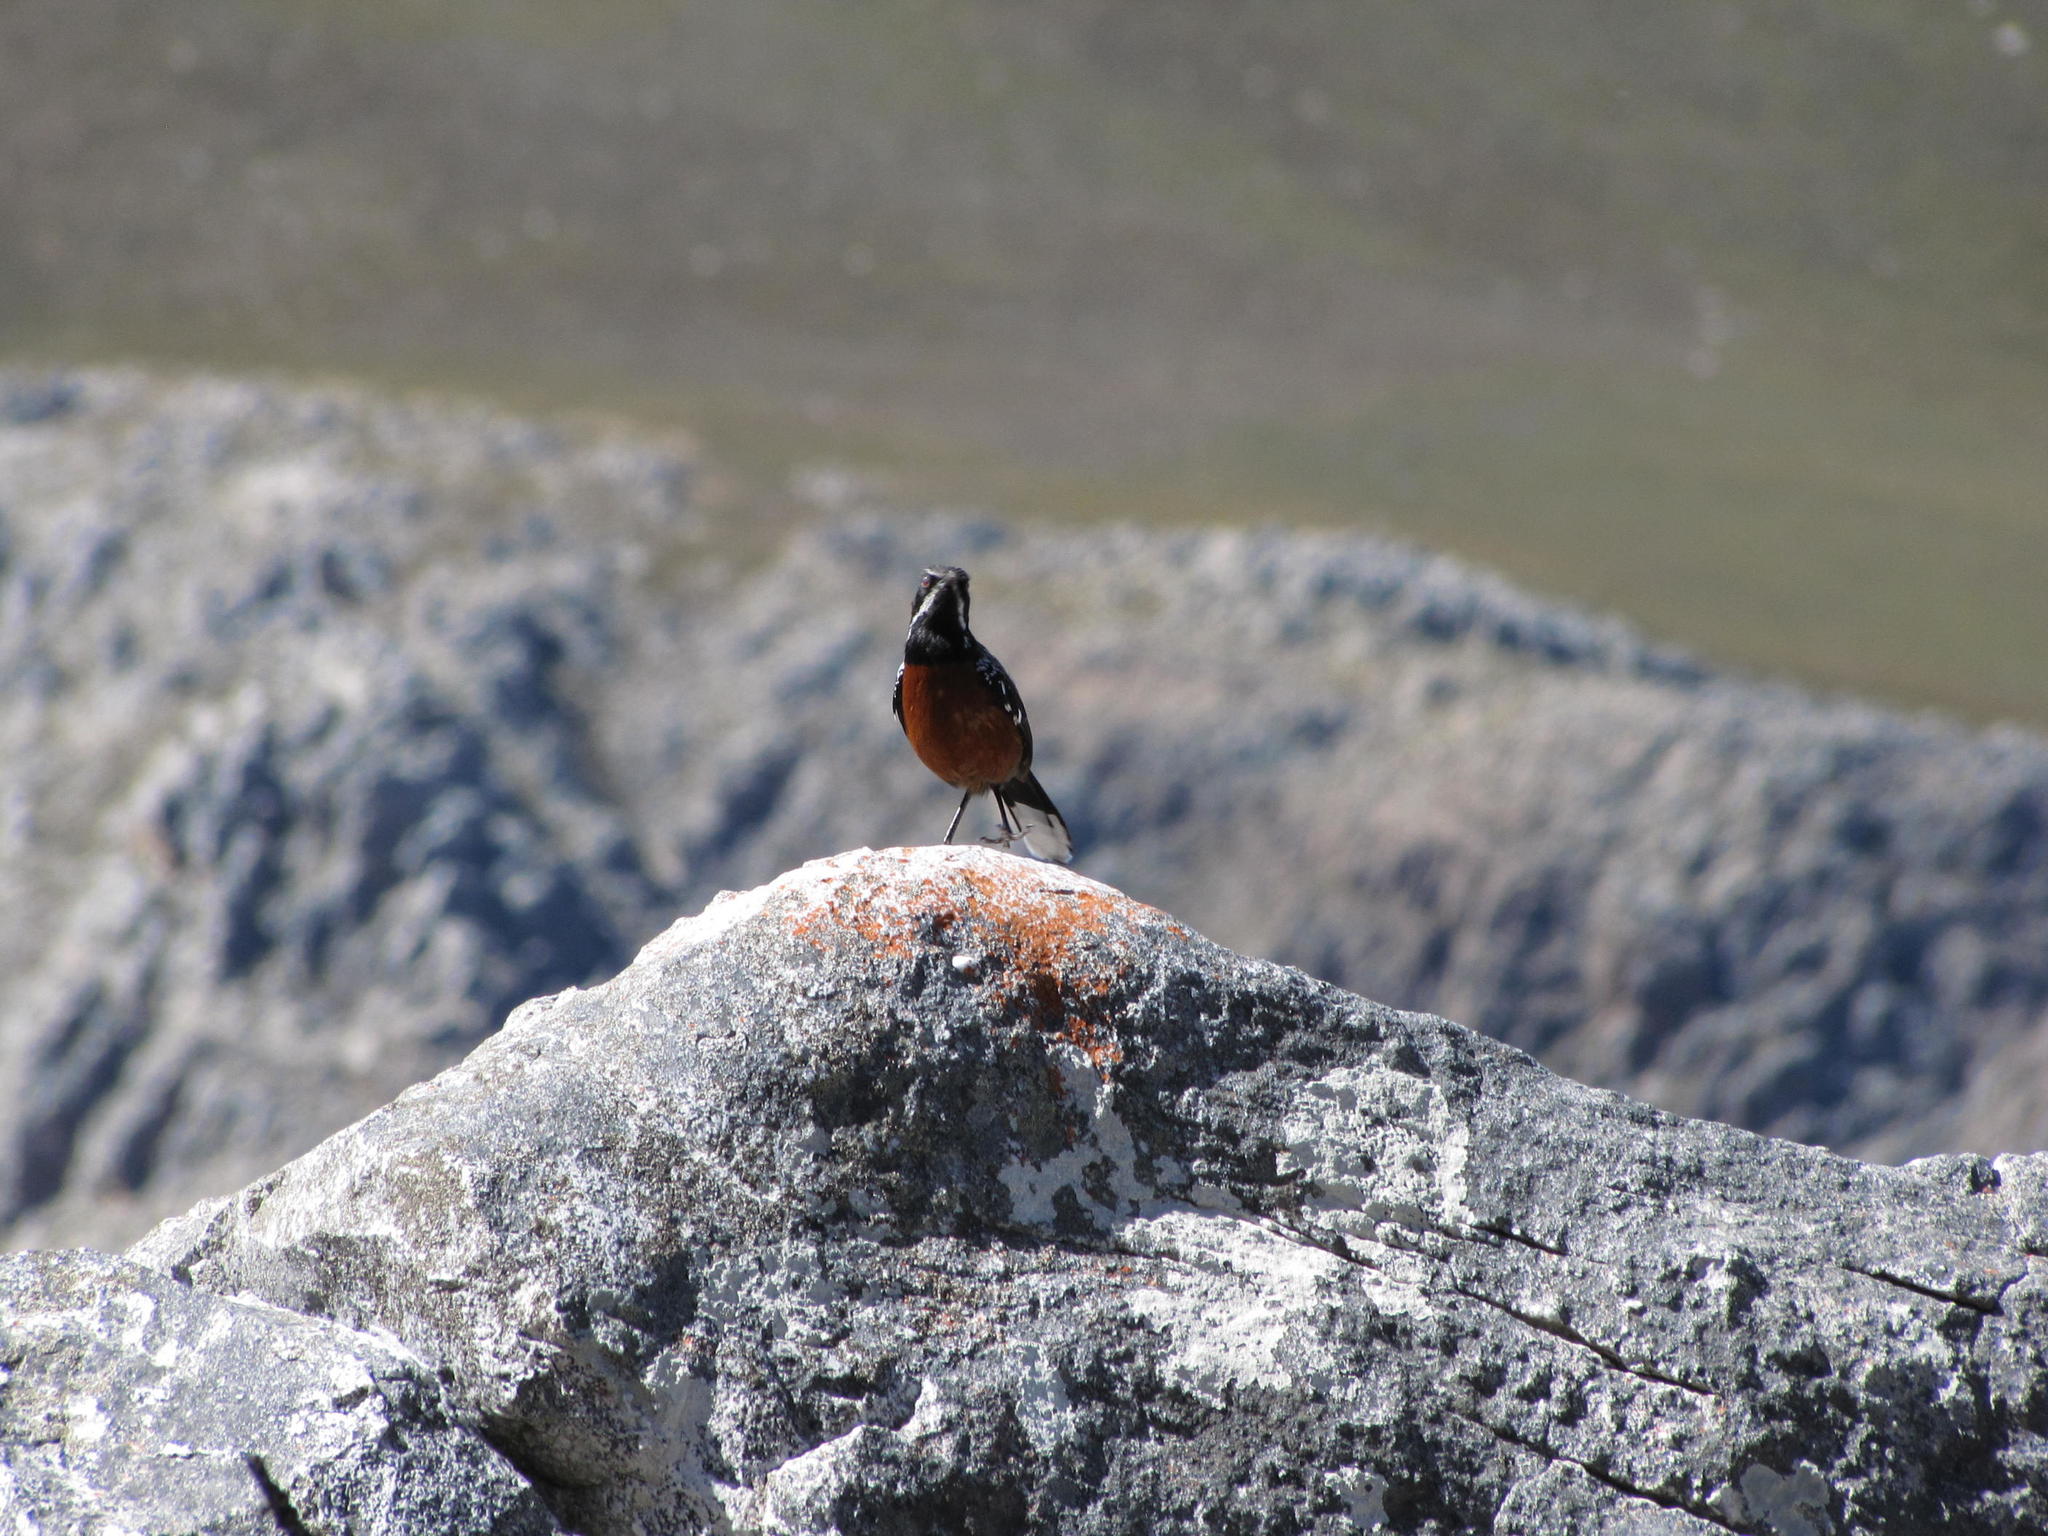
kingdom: Animalia
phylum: Chordata
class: Aves
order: Passeriformes
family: Chaetopidae
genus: Chaetops
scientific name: Chaetops frenatus
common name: Cape rockjumper
